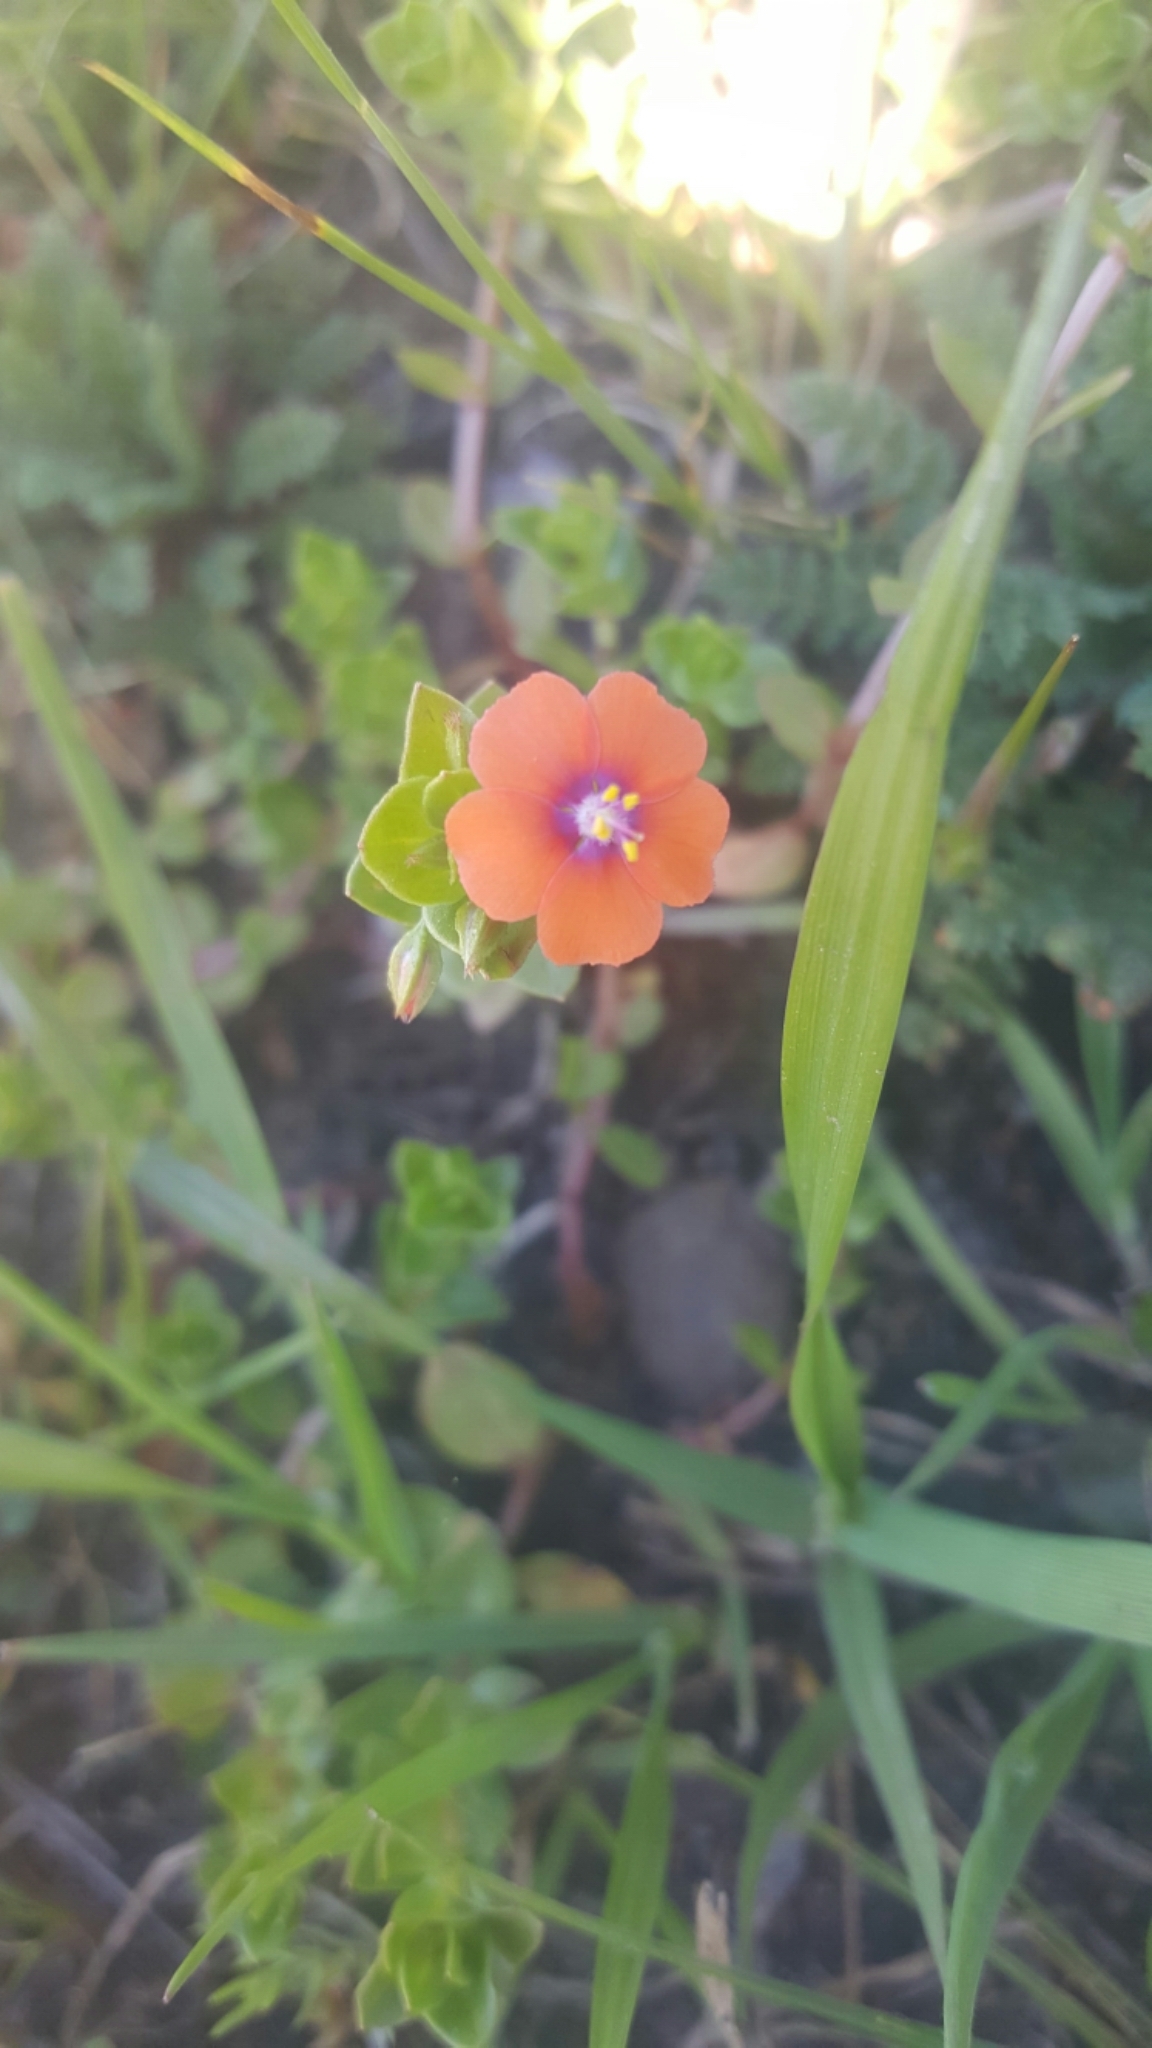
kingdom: Plantae
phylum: Tracheophyta
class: Magnoliopsida
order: Ericales
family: Primulaceae
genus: Lysimachia
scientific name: Lysimachia arvensis
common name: Scarlet pimpernel
